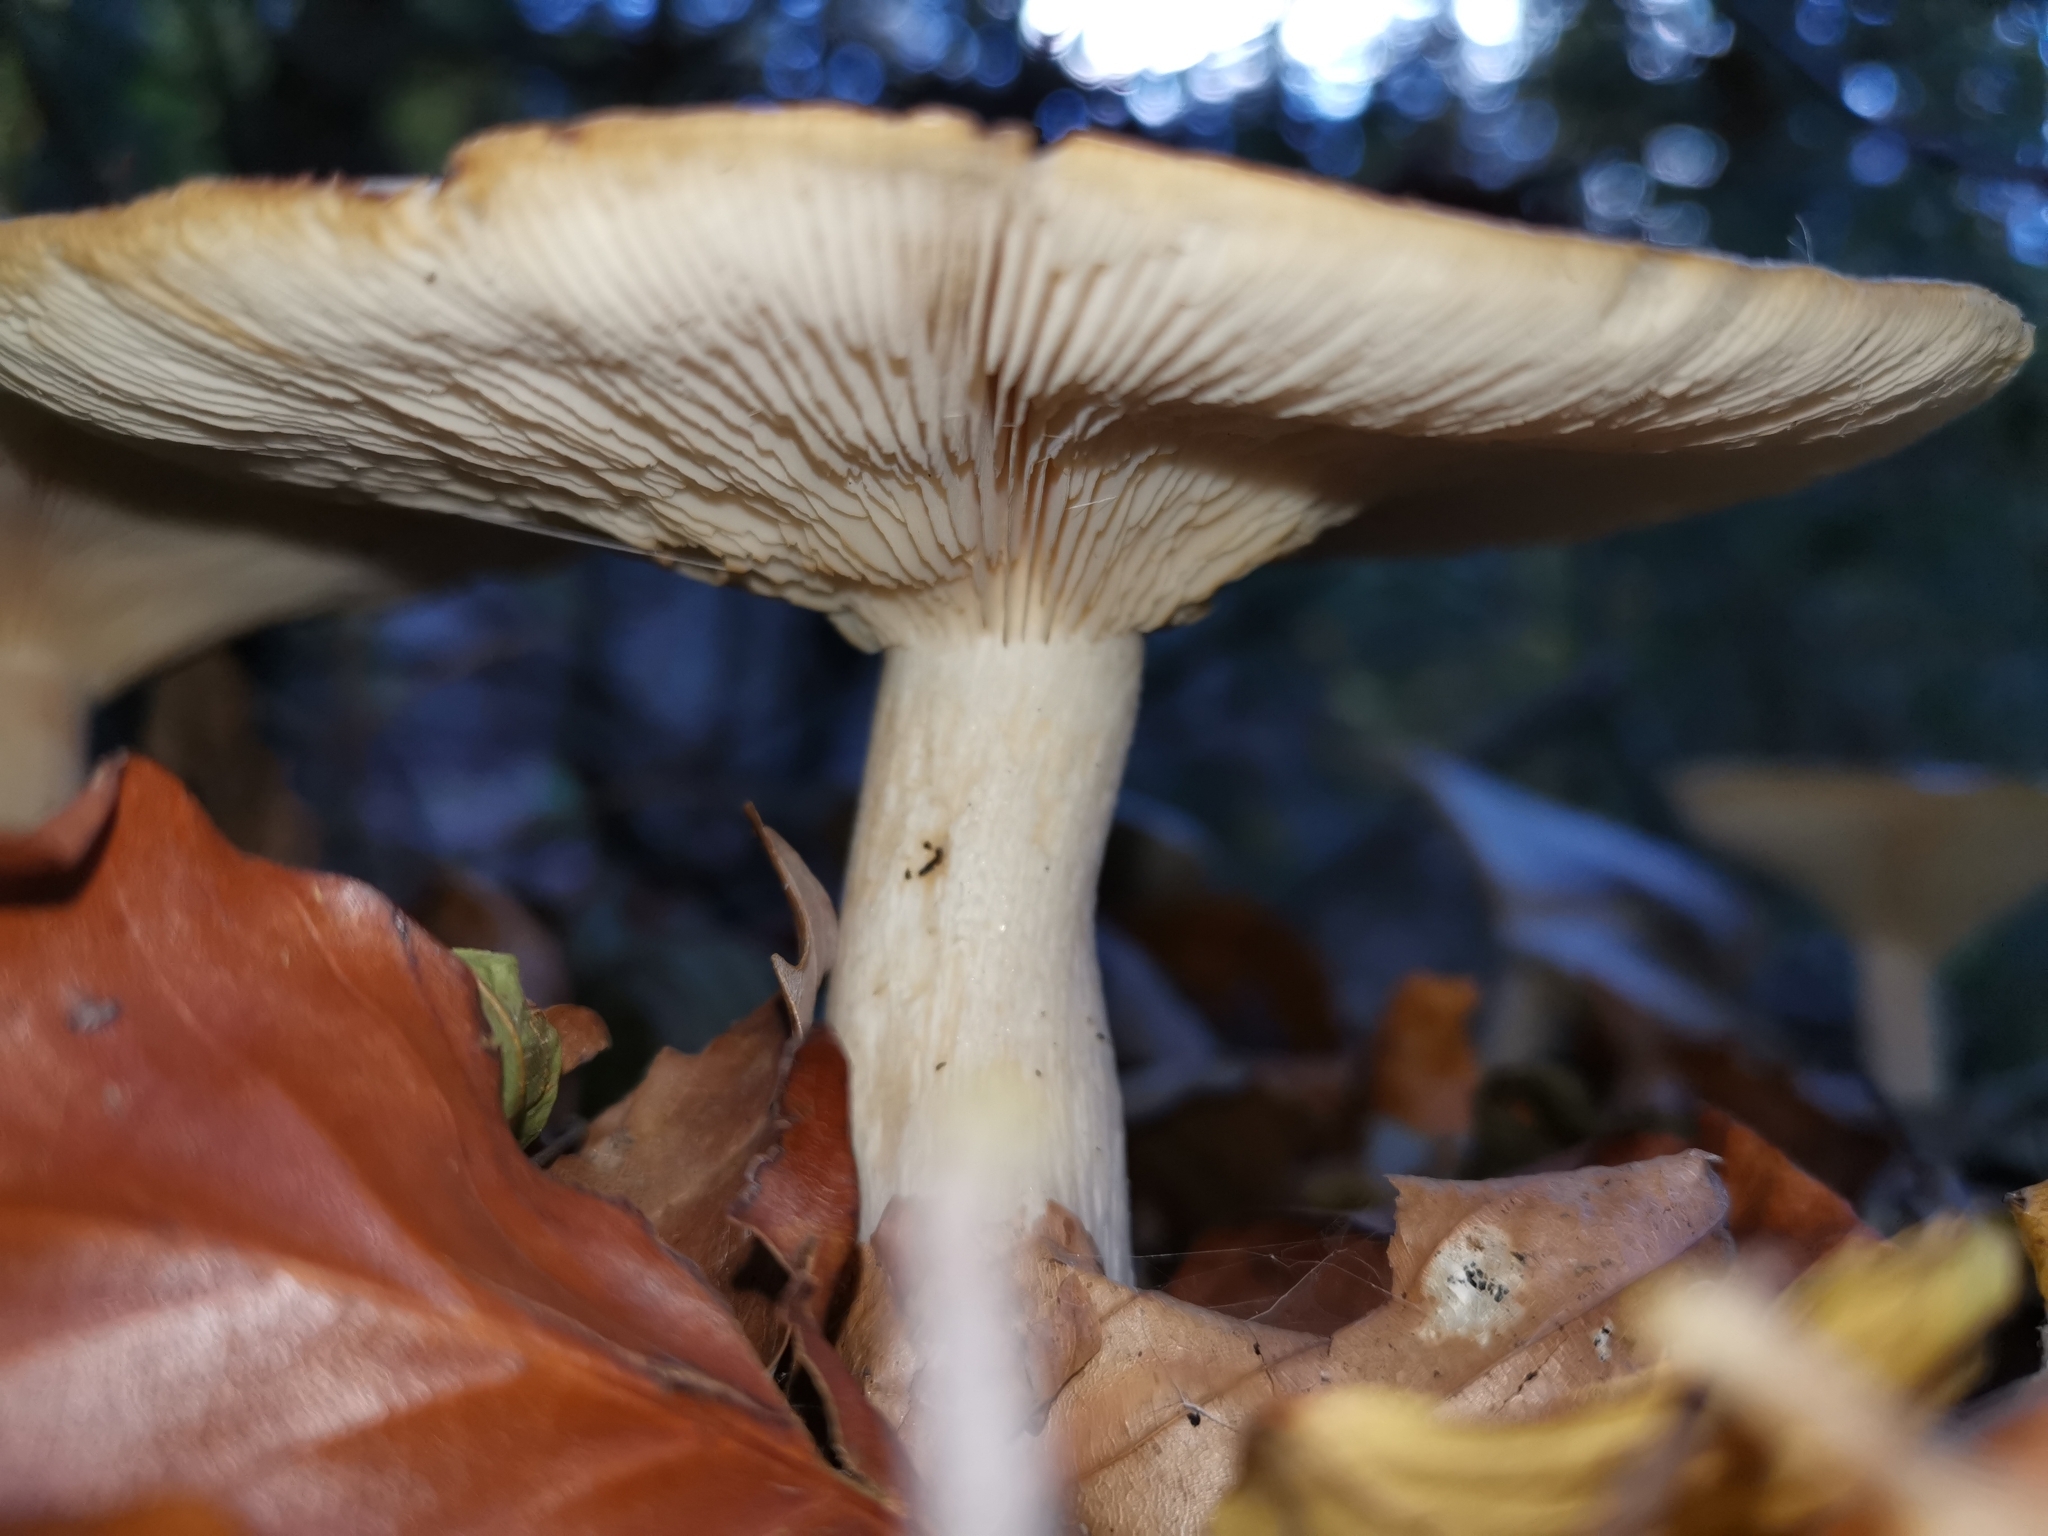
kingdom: Fungi
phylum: Basidiomycota
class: Agaricomycetes
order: Agaricales
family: Tricholomataceae
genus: Clitocybe
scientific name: Clitocybe nebularis
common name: Clouded agaric
